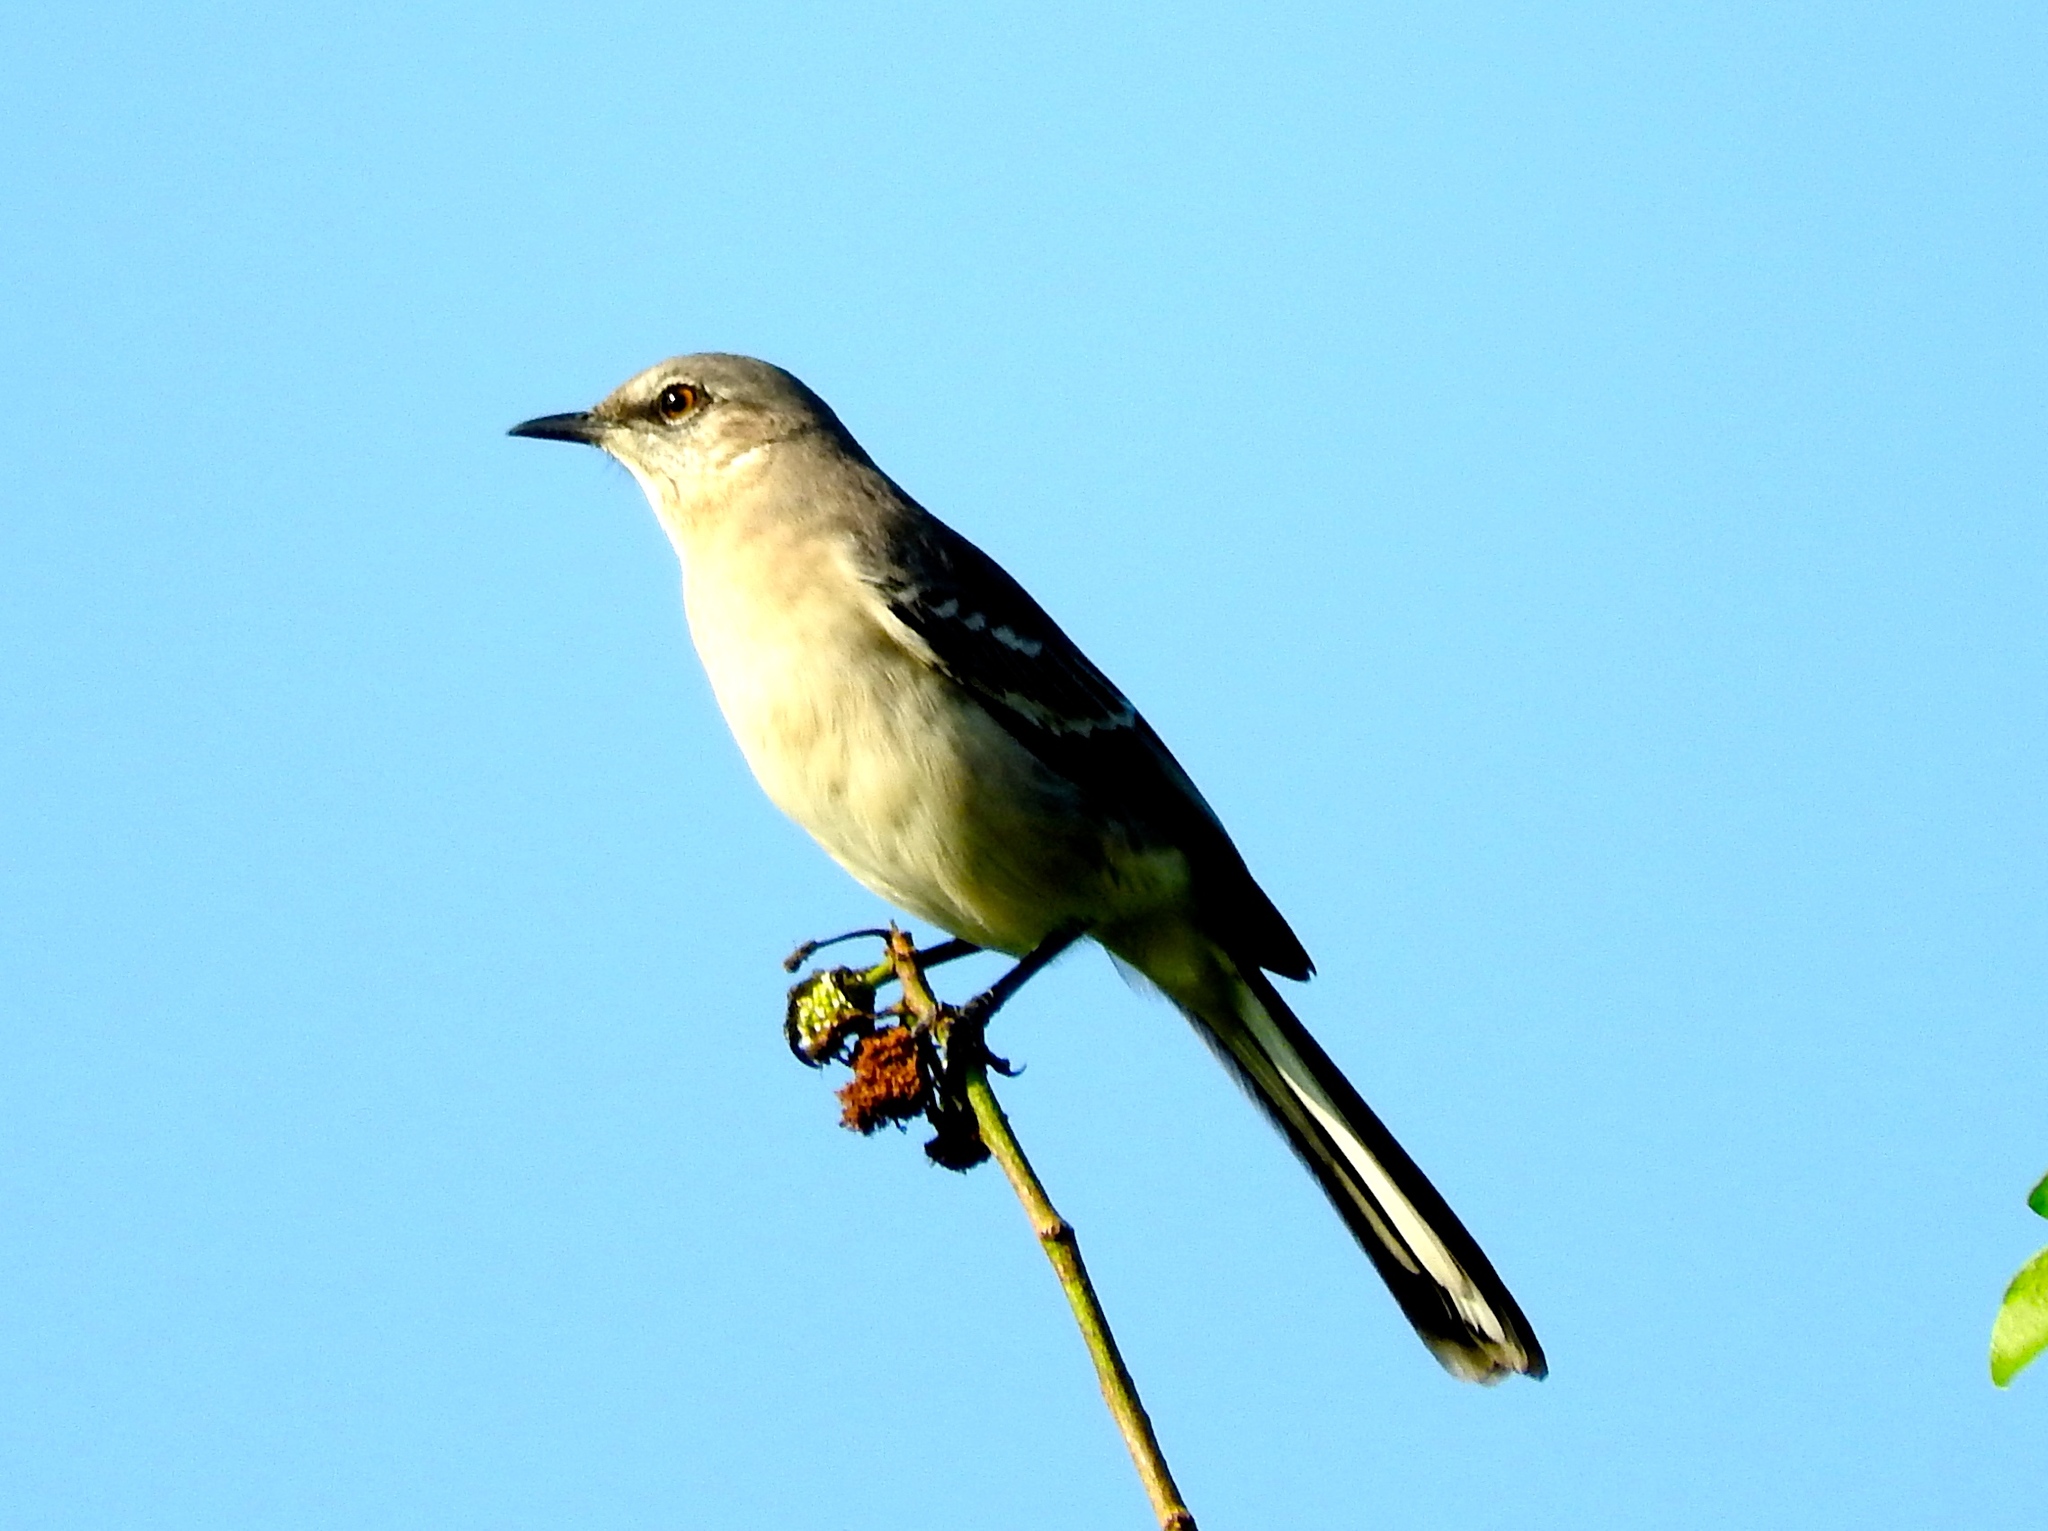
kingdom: Animalia
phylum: Chordata
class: Aves
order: Passeriformes
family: Mimidae
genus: Mimus
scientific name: Mimus polyglottos
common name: Northern mockingbird
